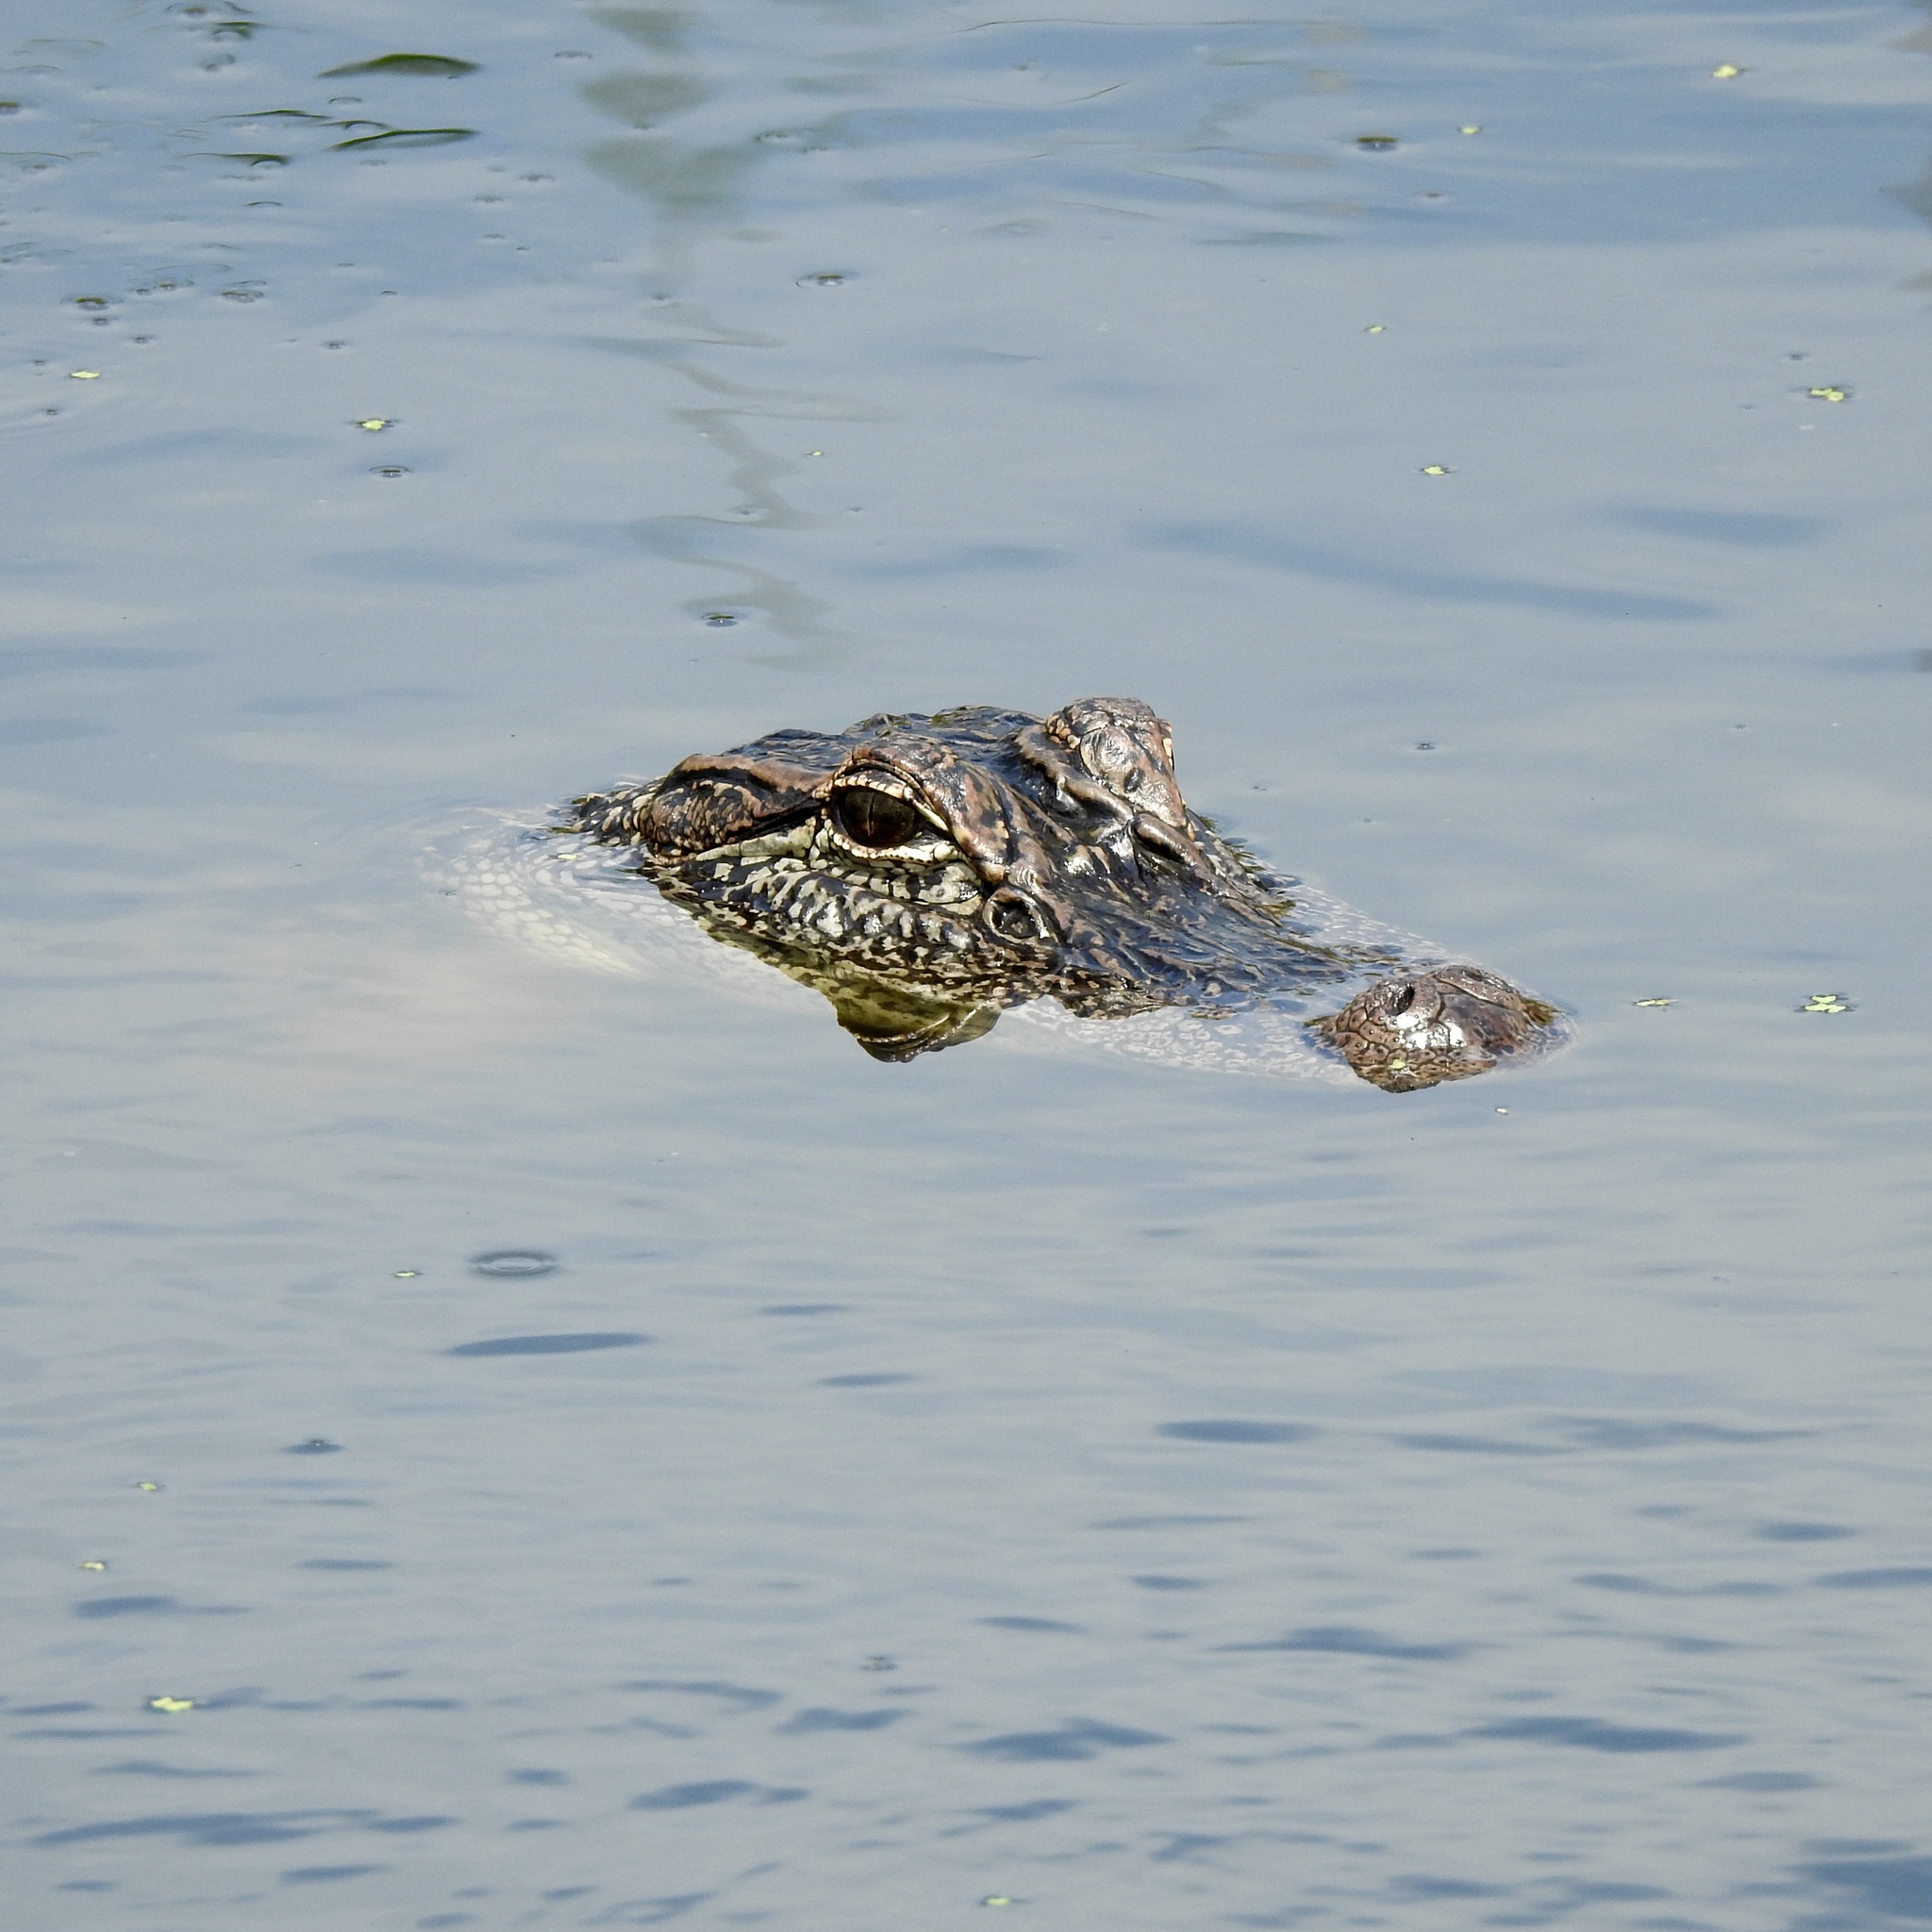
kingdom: Animalia
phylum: Chordata
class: Crocodylia
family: Alligatoridae
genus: Alligator
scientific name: Alligator mississippiensis
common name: American alligator
